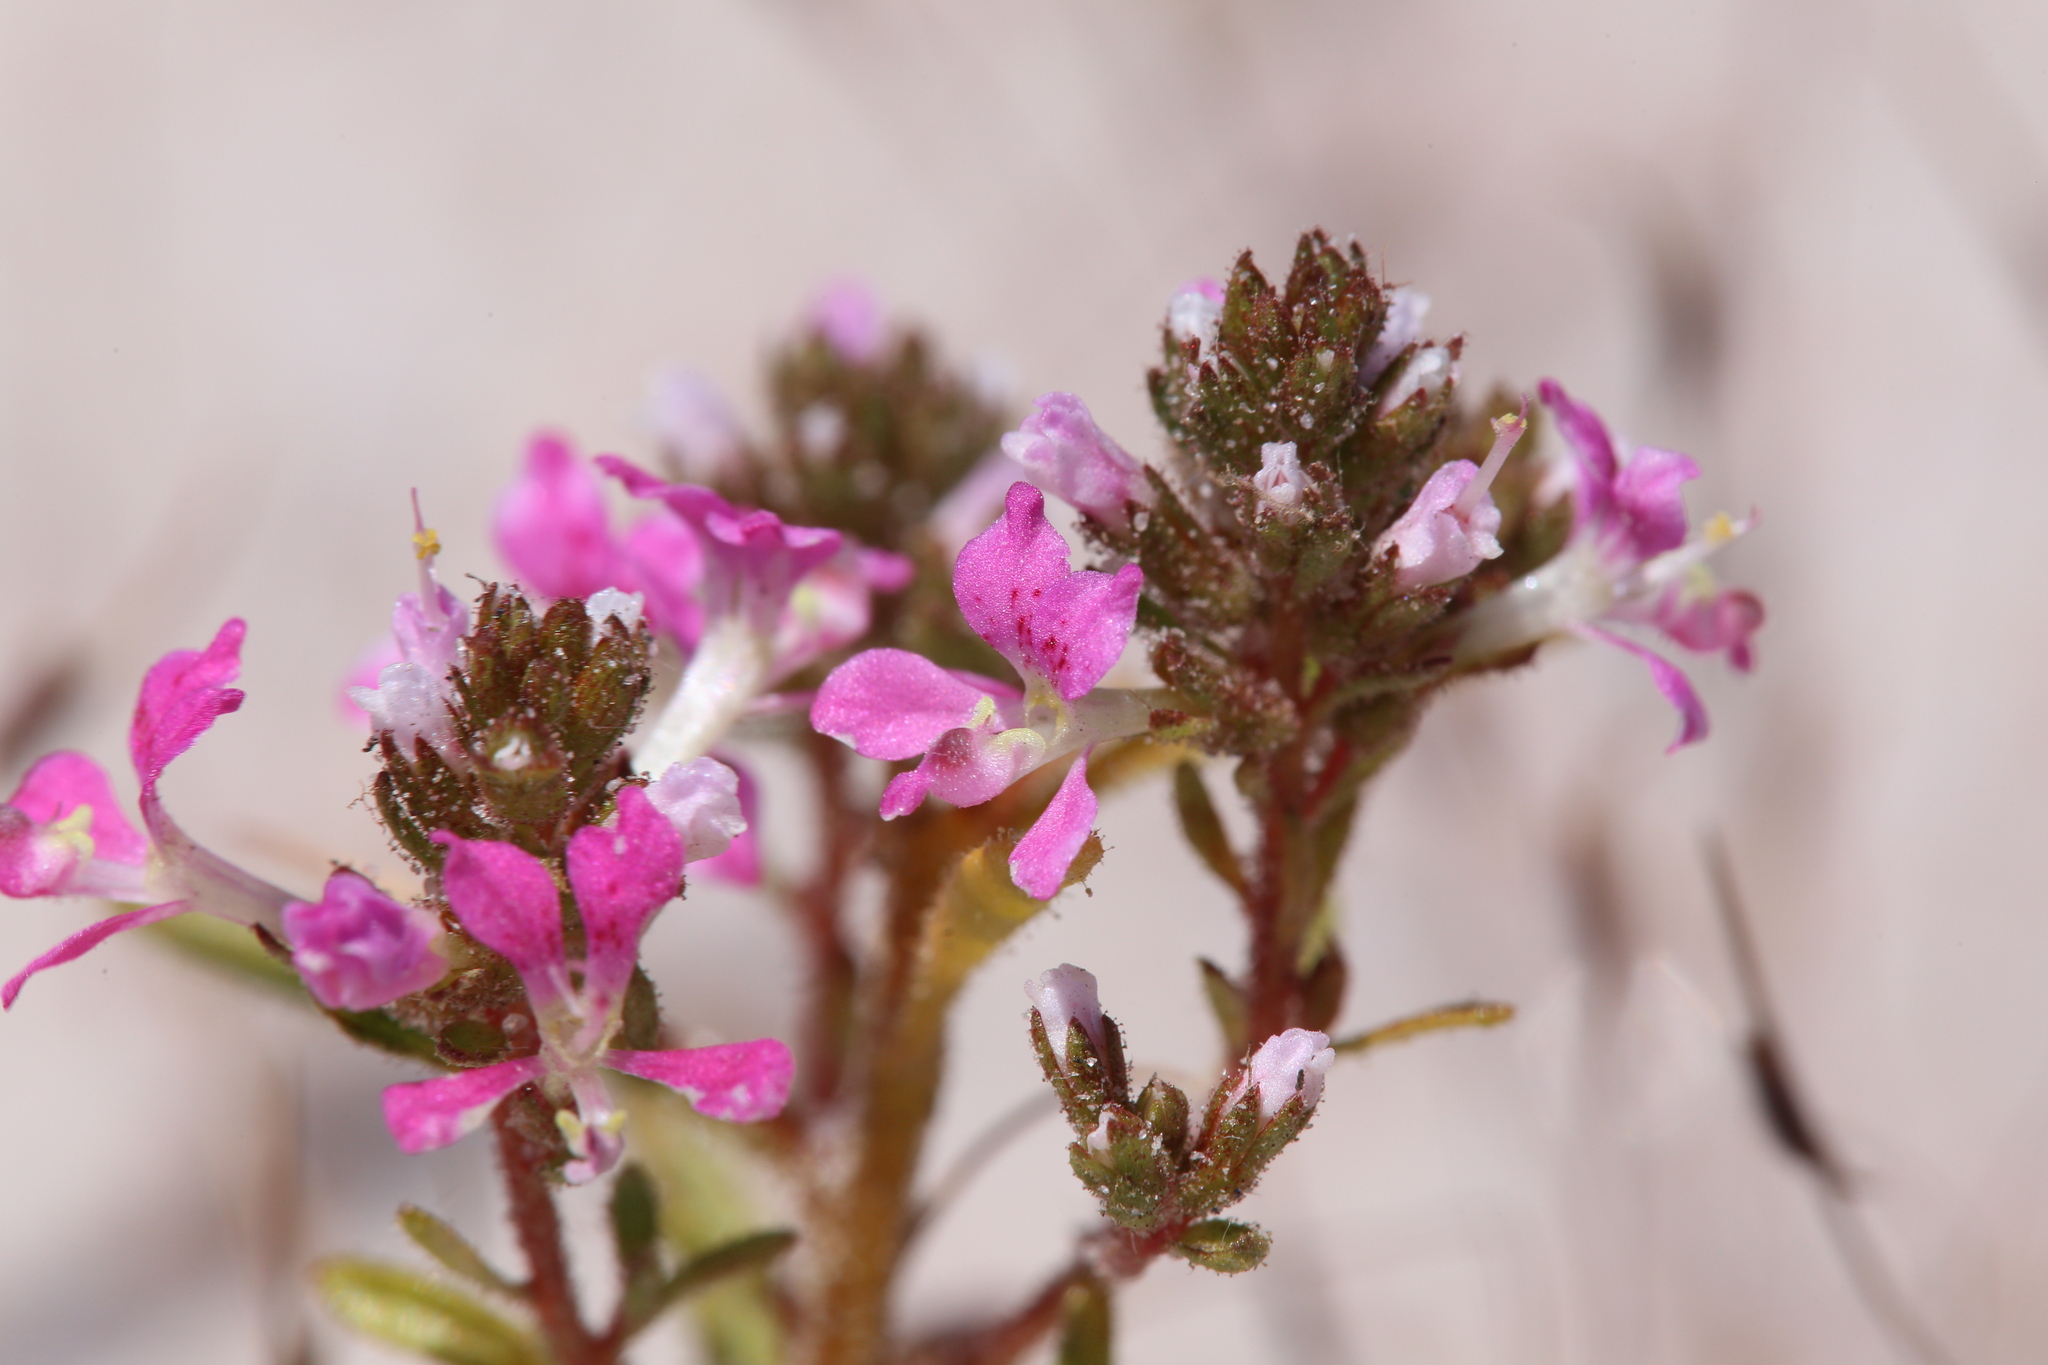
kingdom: Plantae
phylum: Tracheophyta
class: Magnoliopsida
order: Asterales
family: Stylidiaceae
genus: Levenhookia
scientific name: Levenhookia preissii
